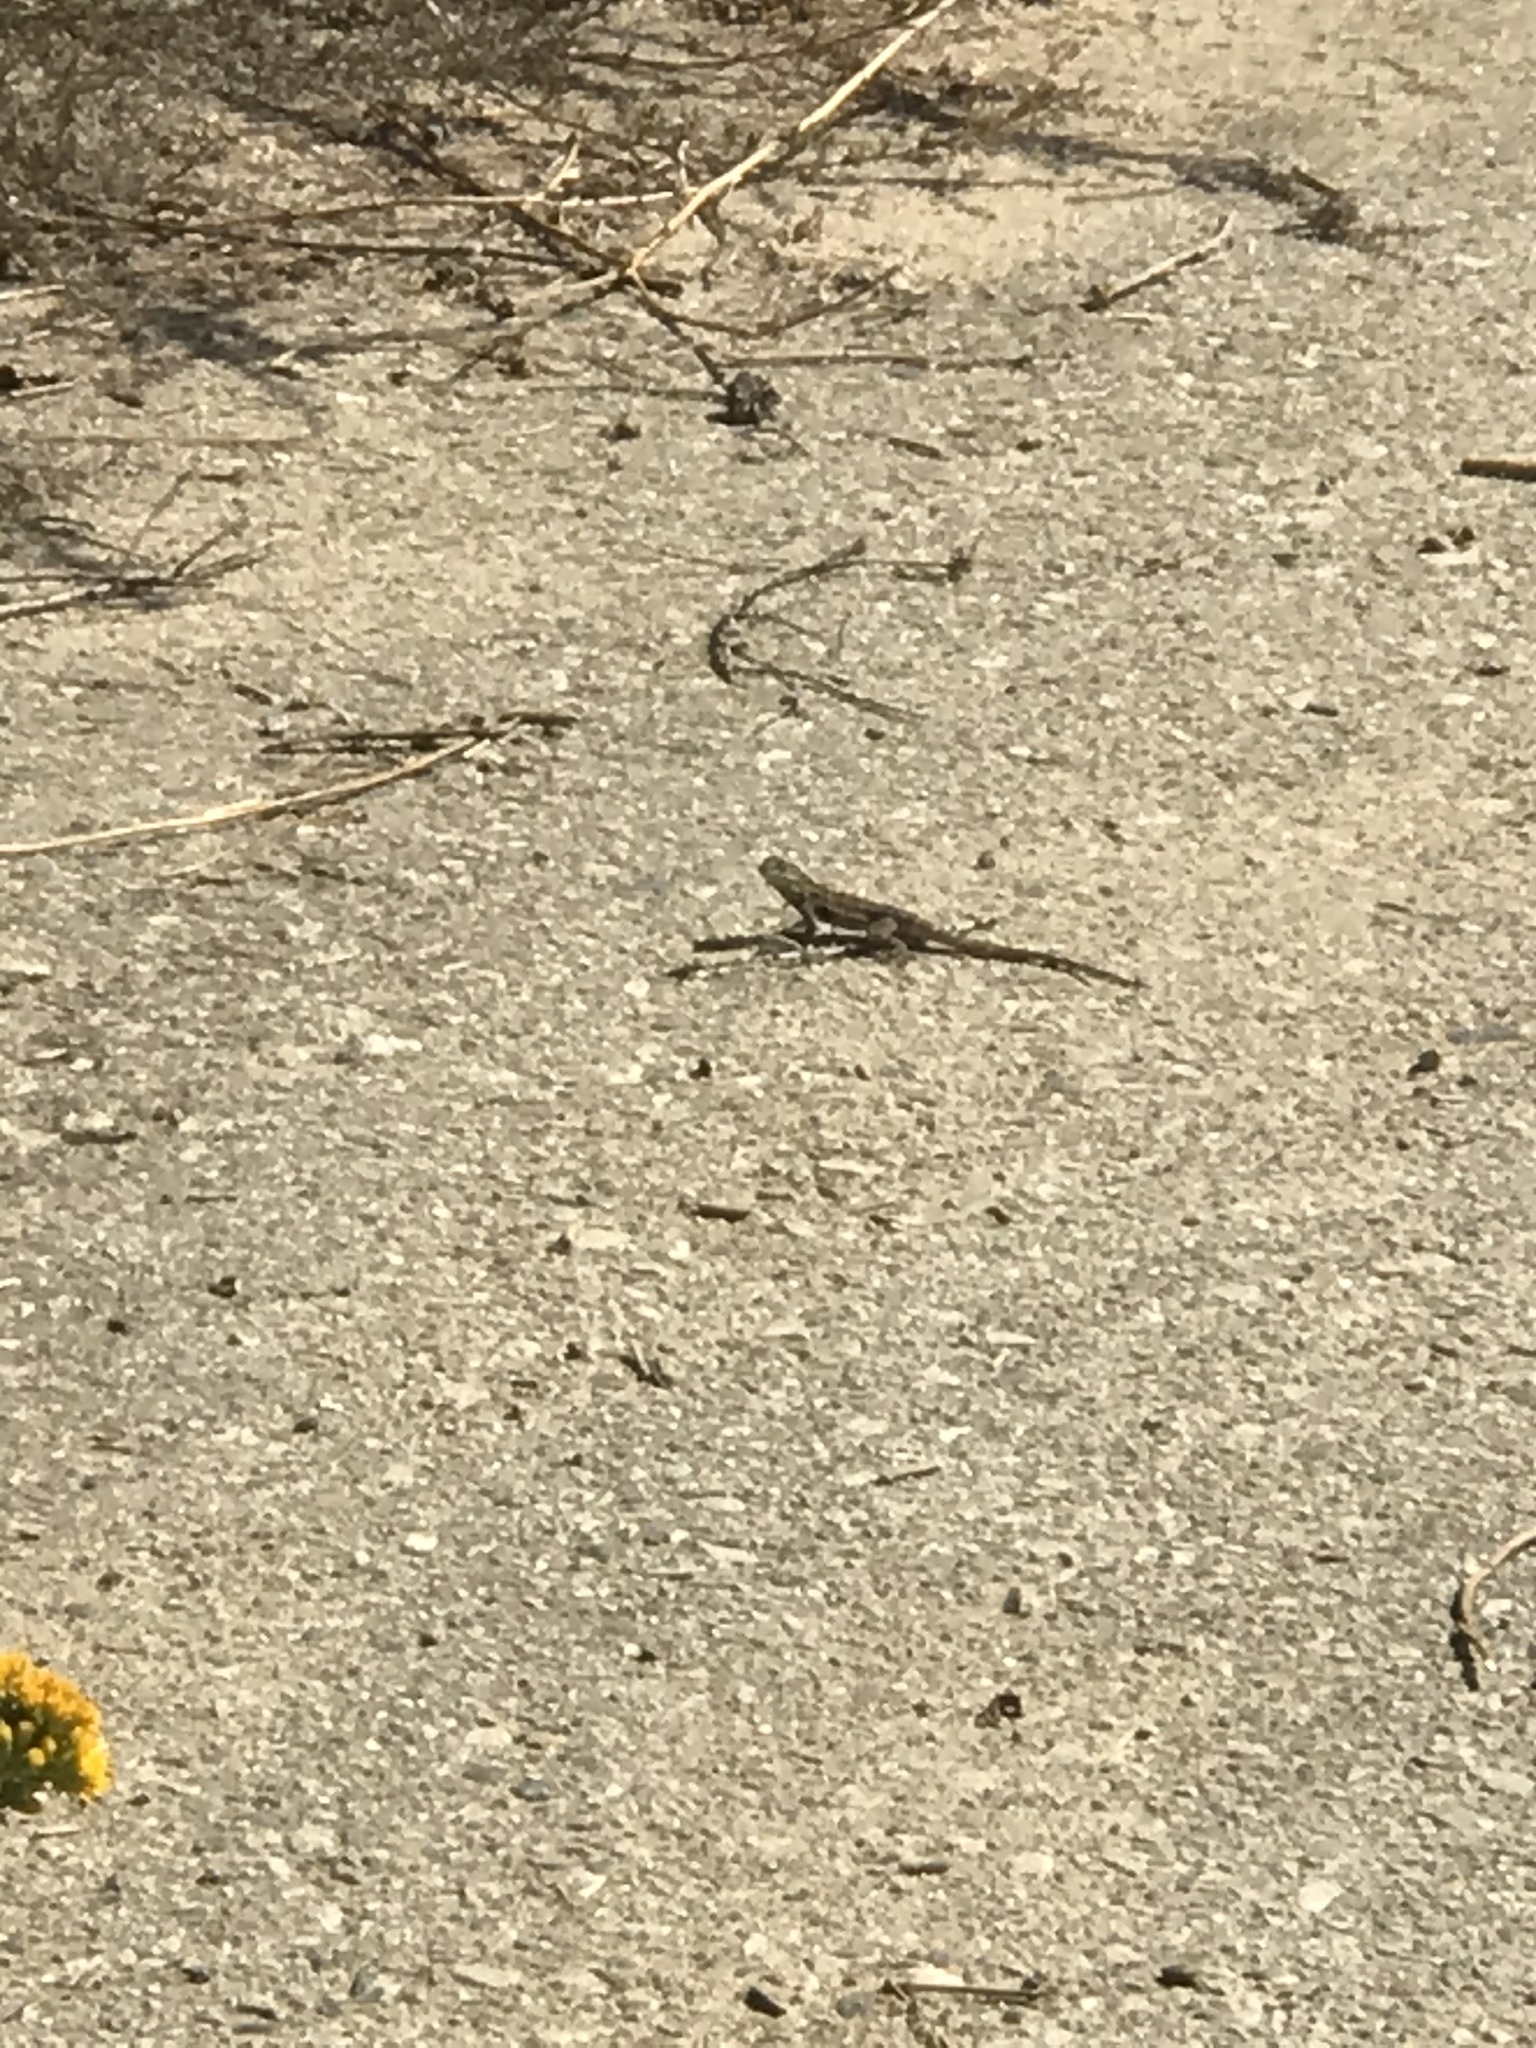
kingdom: Animalia
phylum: Chordata
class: Squamata
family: Phrynosomatidae
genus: Uta
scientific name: Uta stansburiana
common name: Side-blotched lizard
